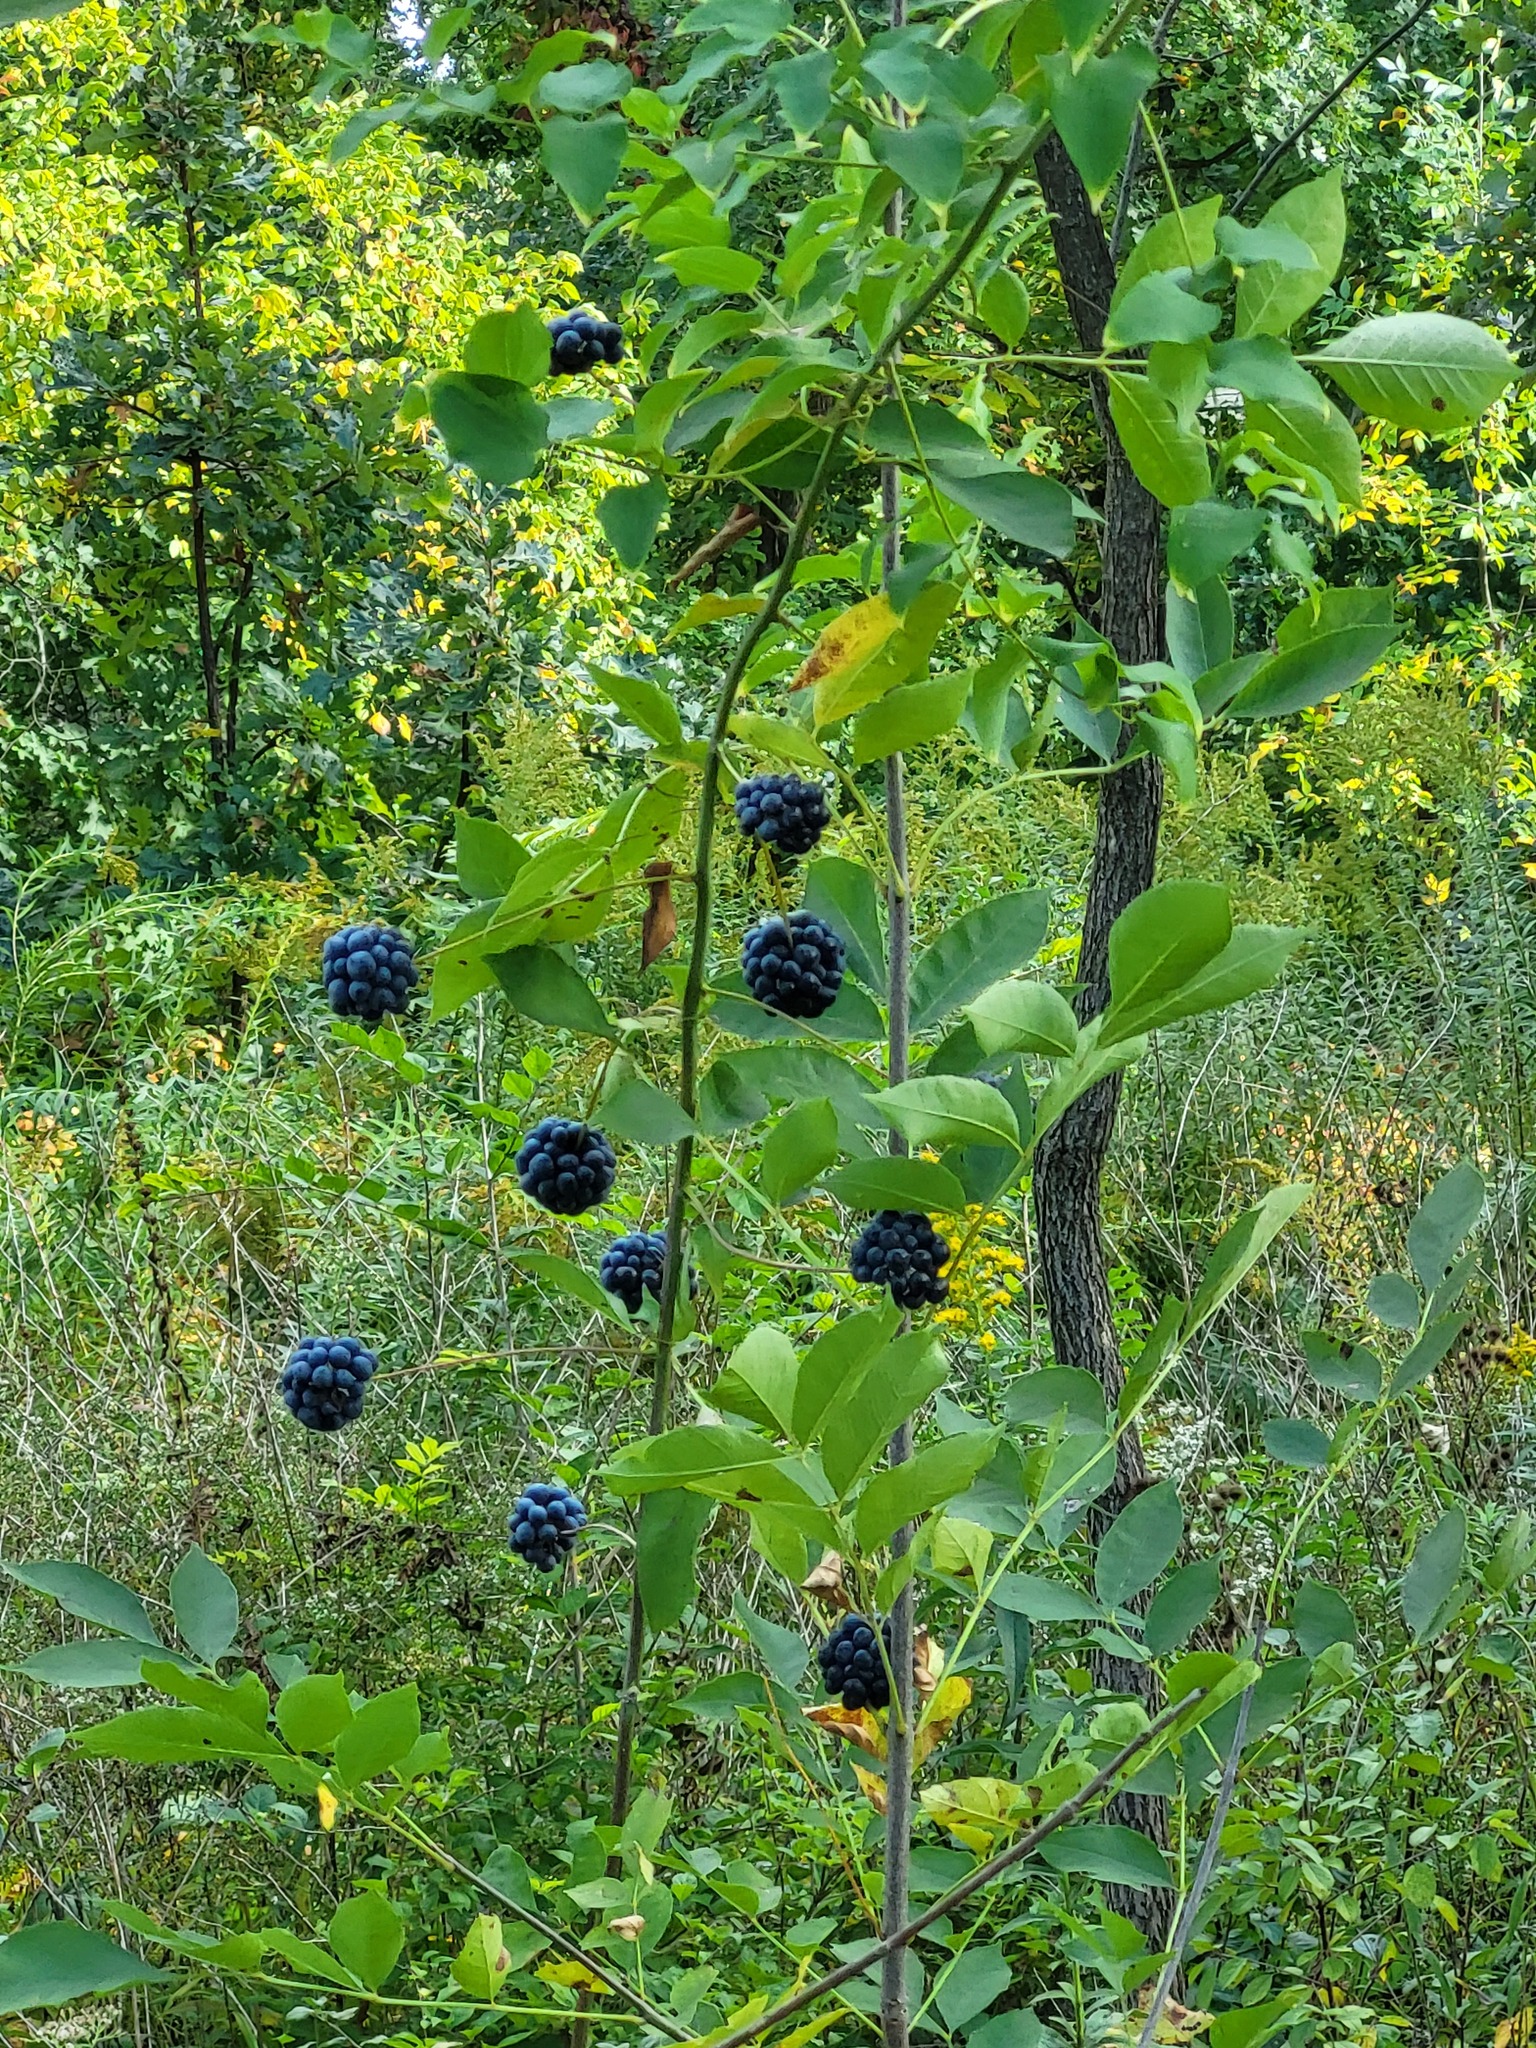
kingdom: Plantae
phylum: Tracheophyta
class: Liliopsida
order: Liliales
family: Smilacaceae
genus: Smilax
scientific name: Smilax lasioneura
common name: Blue ridge carrionflower
